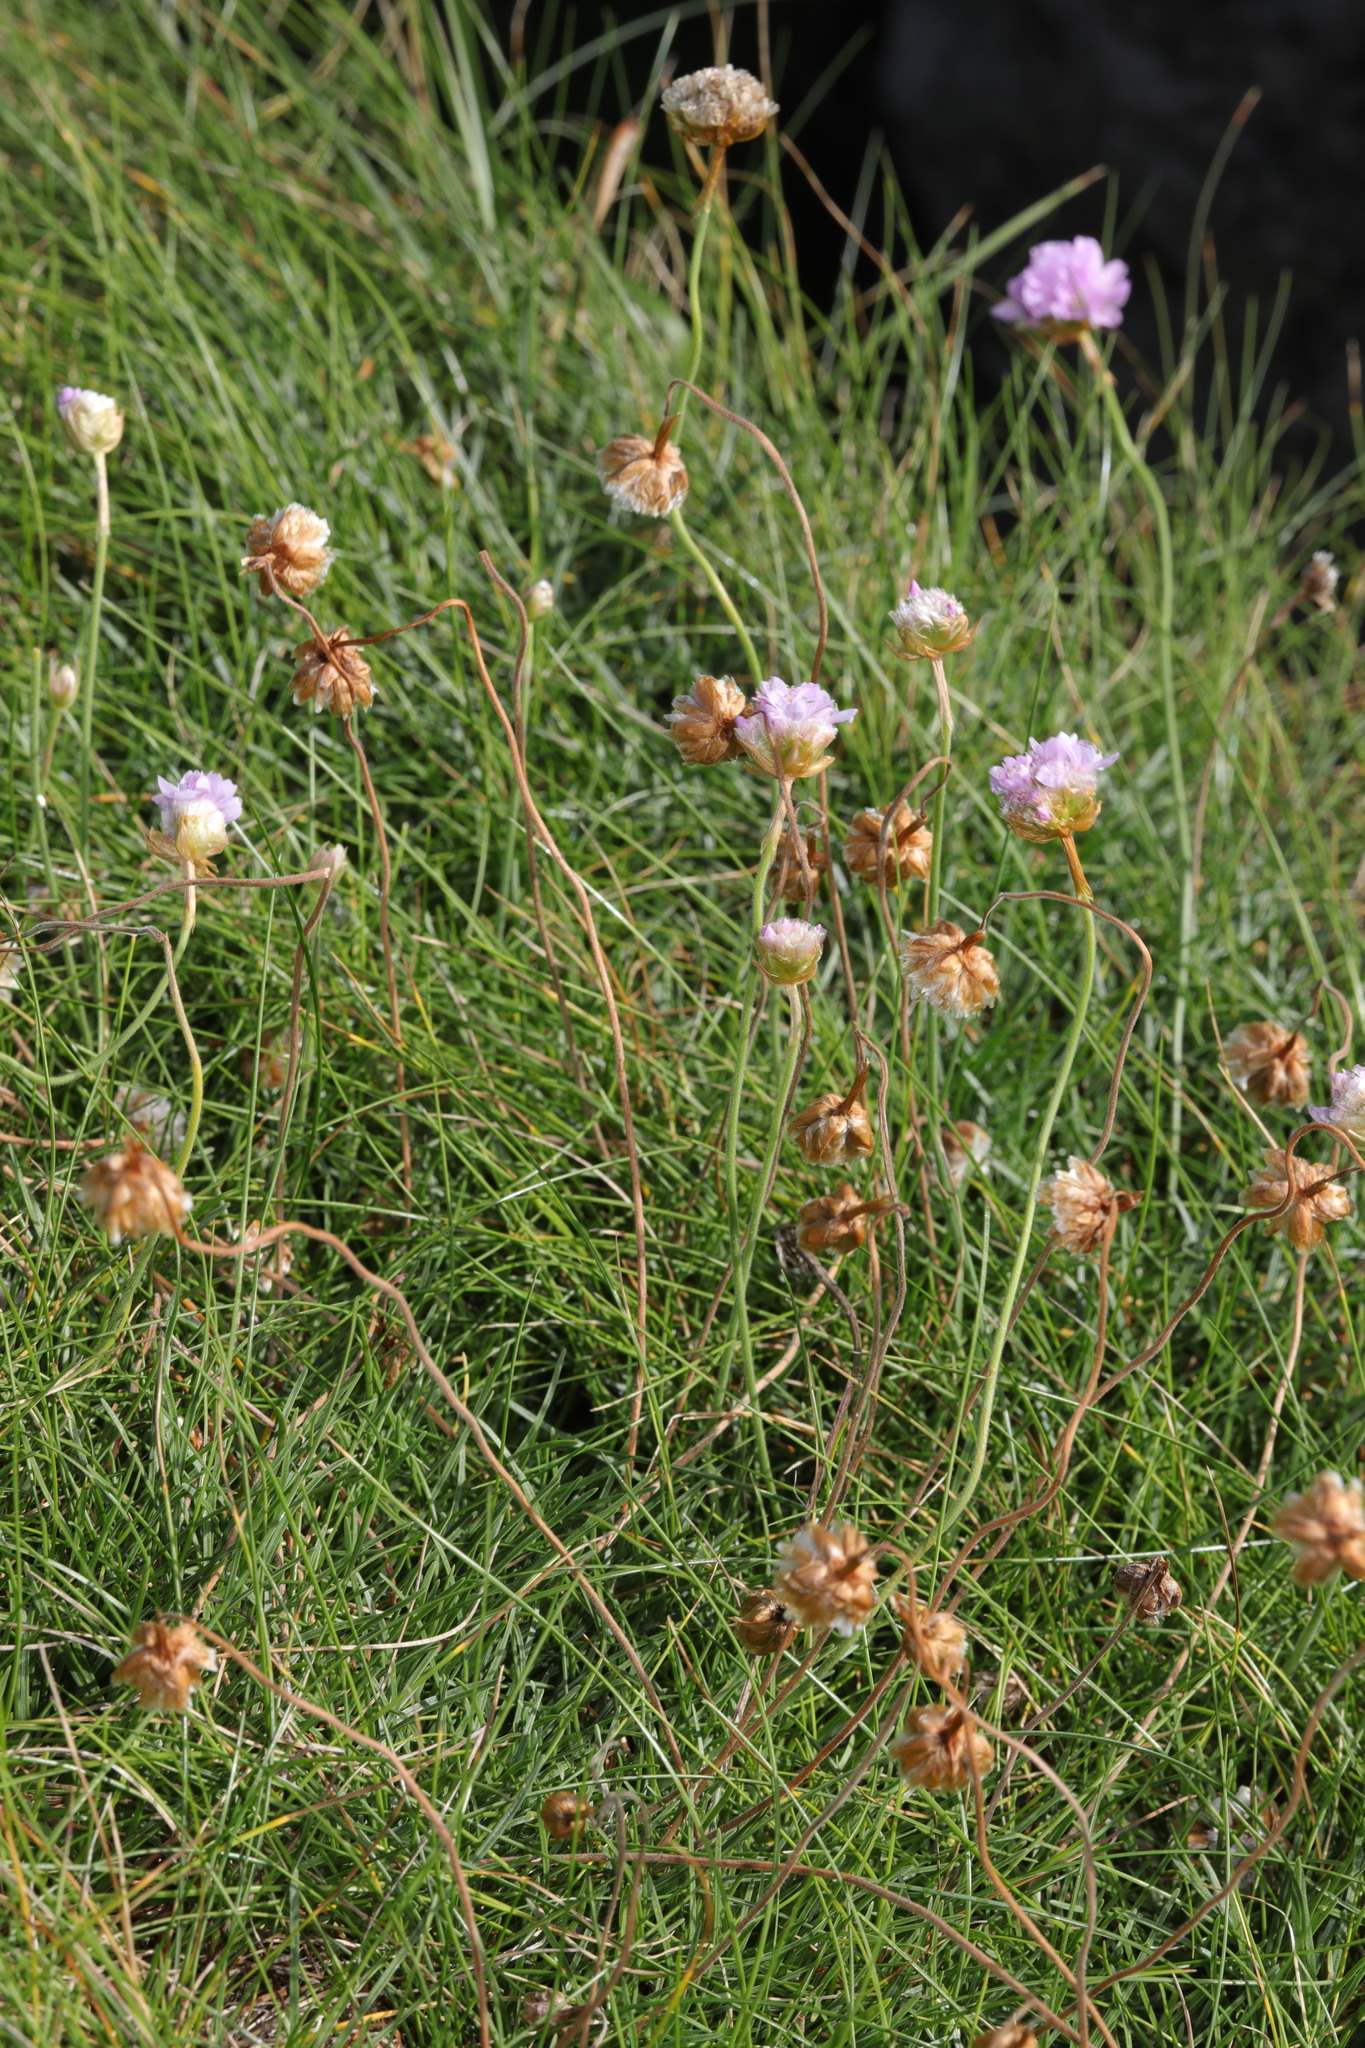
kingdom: Plantae
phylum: Tracheophyta
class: Magnoliopsida
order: Caryophyllales
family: Plumbaginaceae
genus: Armeria
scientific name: Armeria maritima
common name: Thrift
